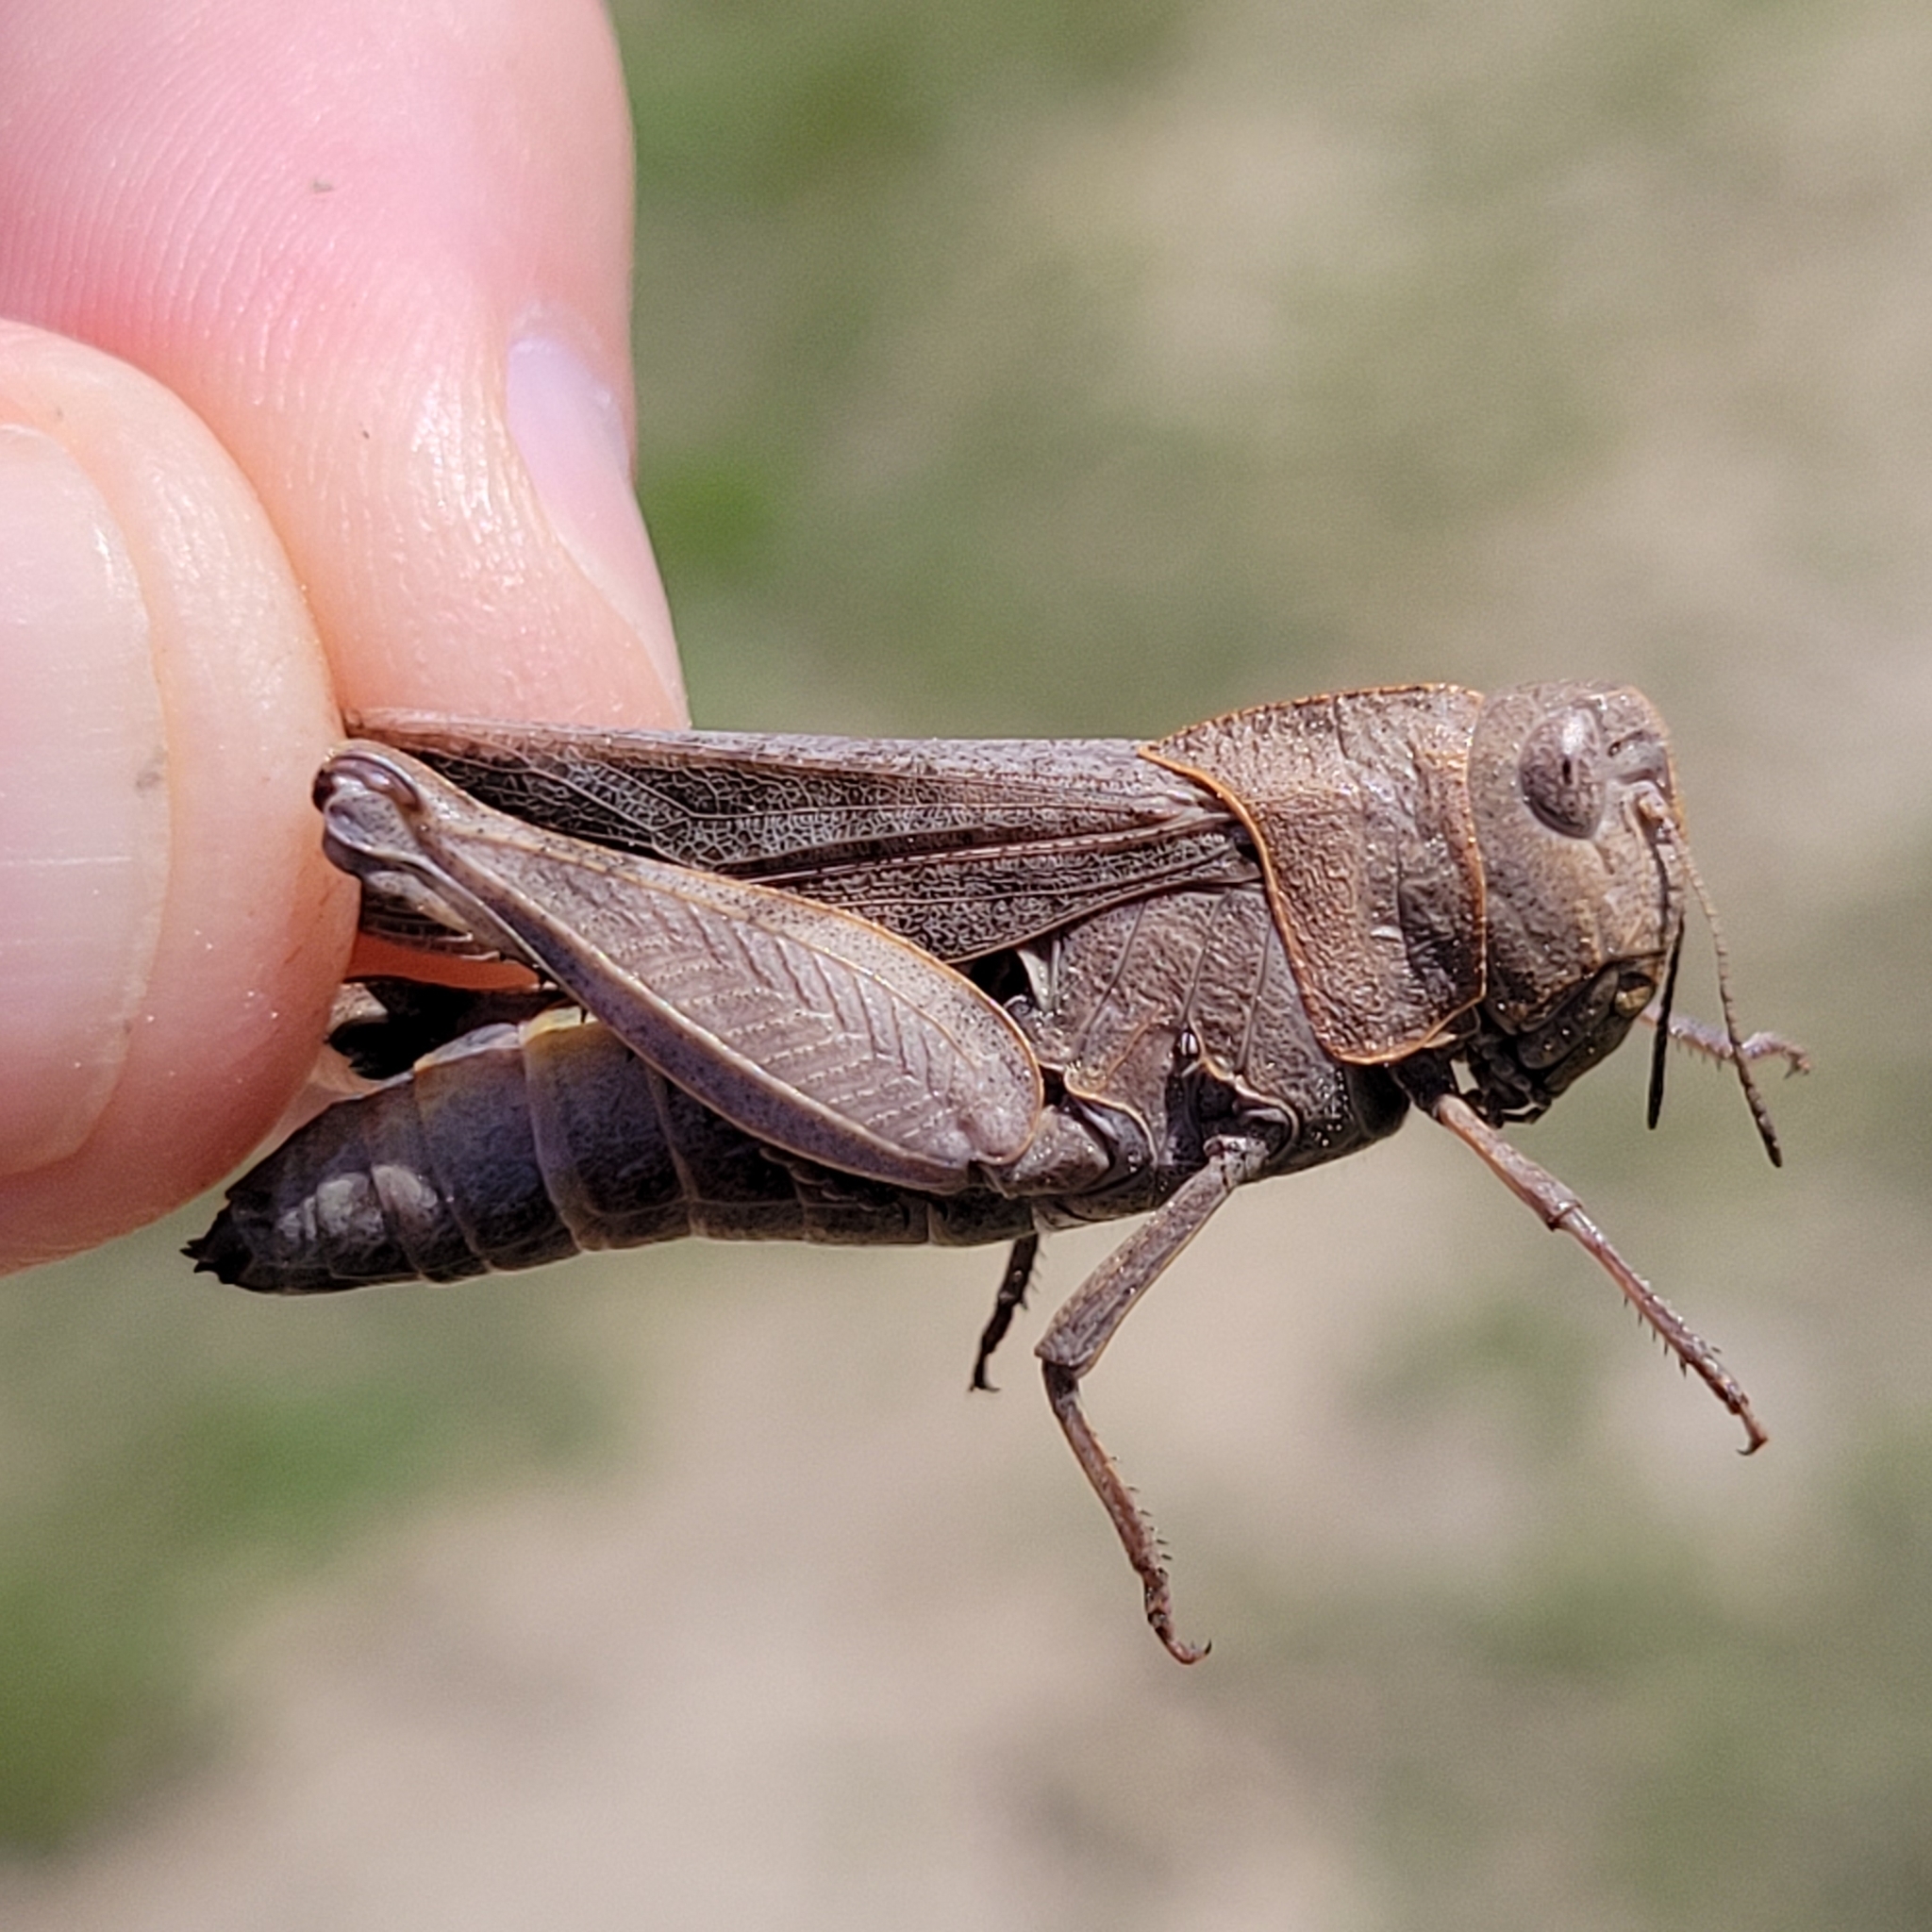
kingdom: Animalia
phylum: Arthropoda
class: Insecta
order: Orthoptera
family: Acrididae
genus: Arphia
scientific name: Arphia sulphurea
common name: Spring yellow-winged locust
